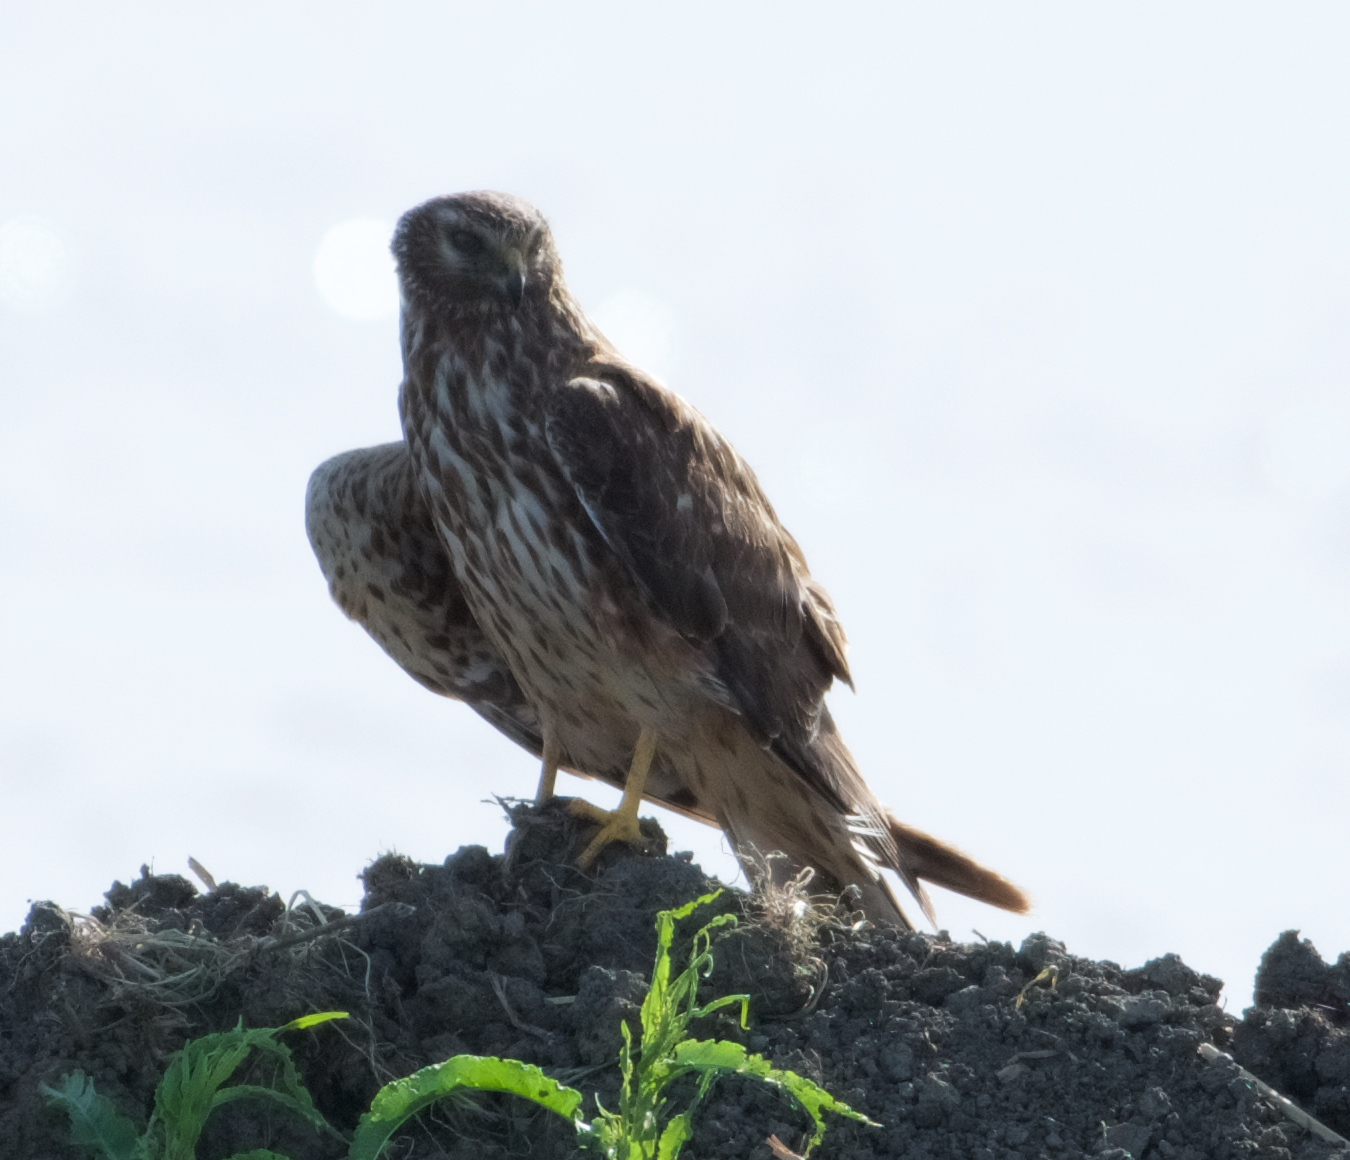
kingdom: Animalia
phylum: Chordata
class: Aves
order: Accipitriformes
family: Accipitridae
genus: Circus
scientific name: Circus cyaneus
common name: Hen harrier
